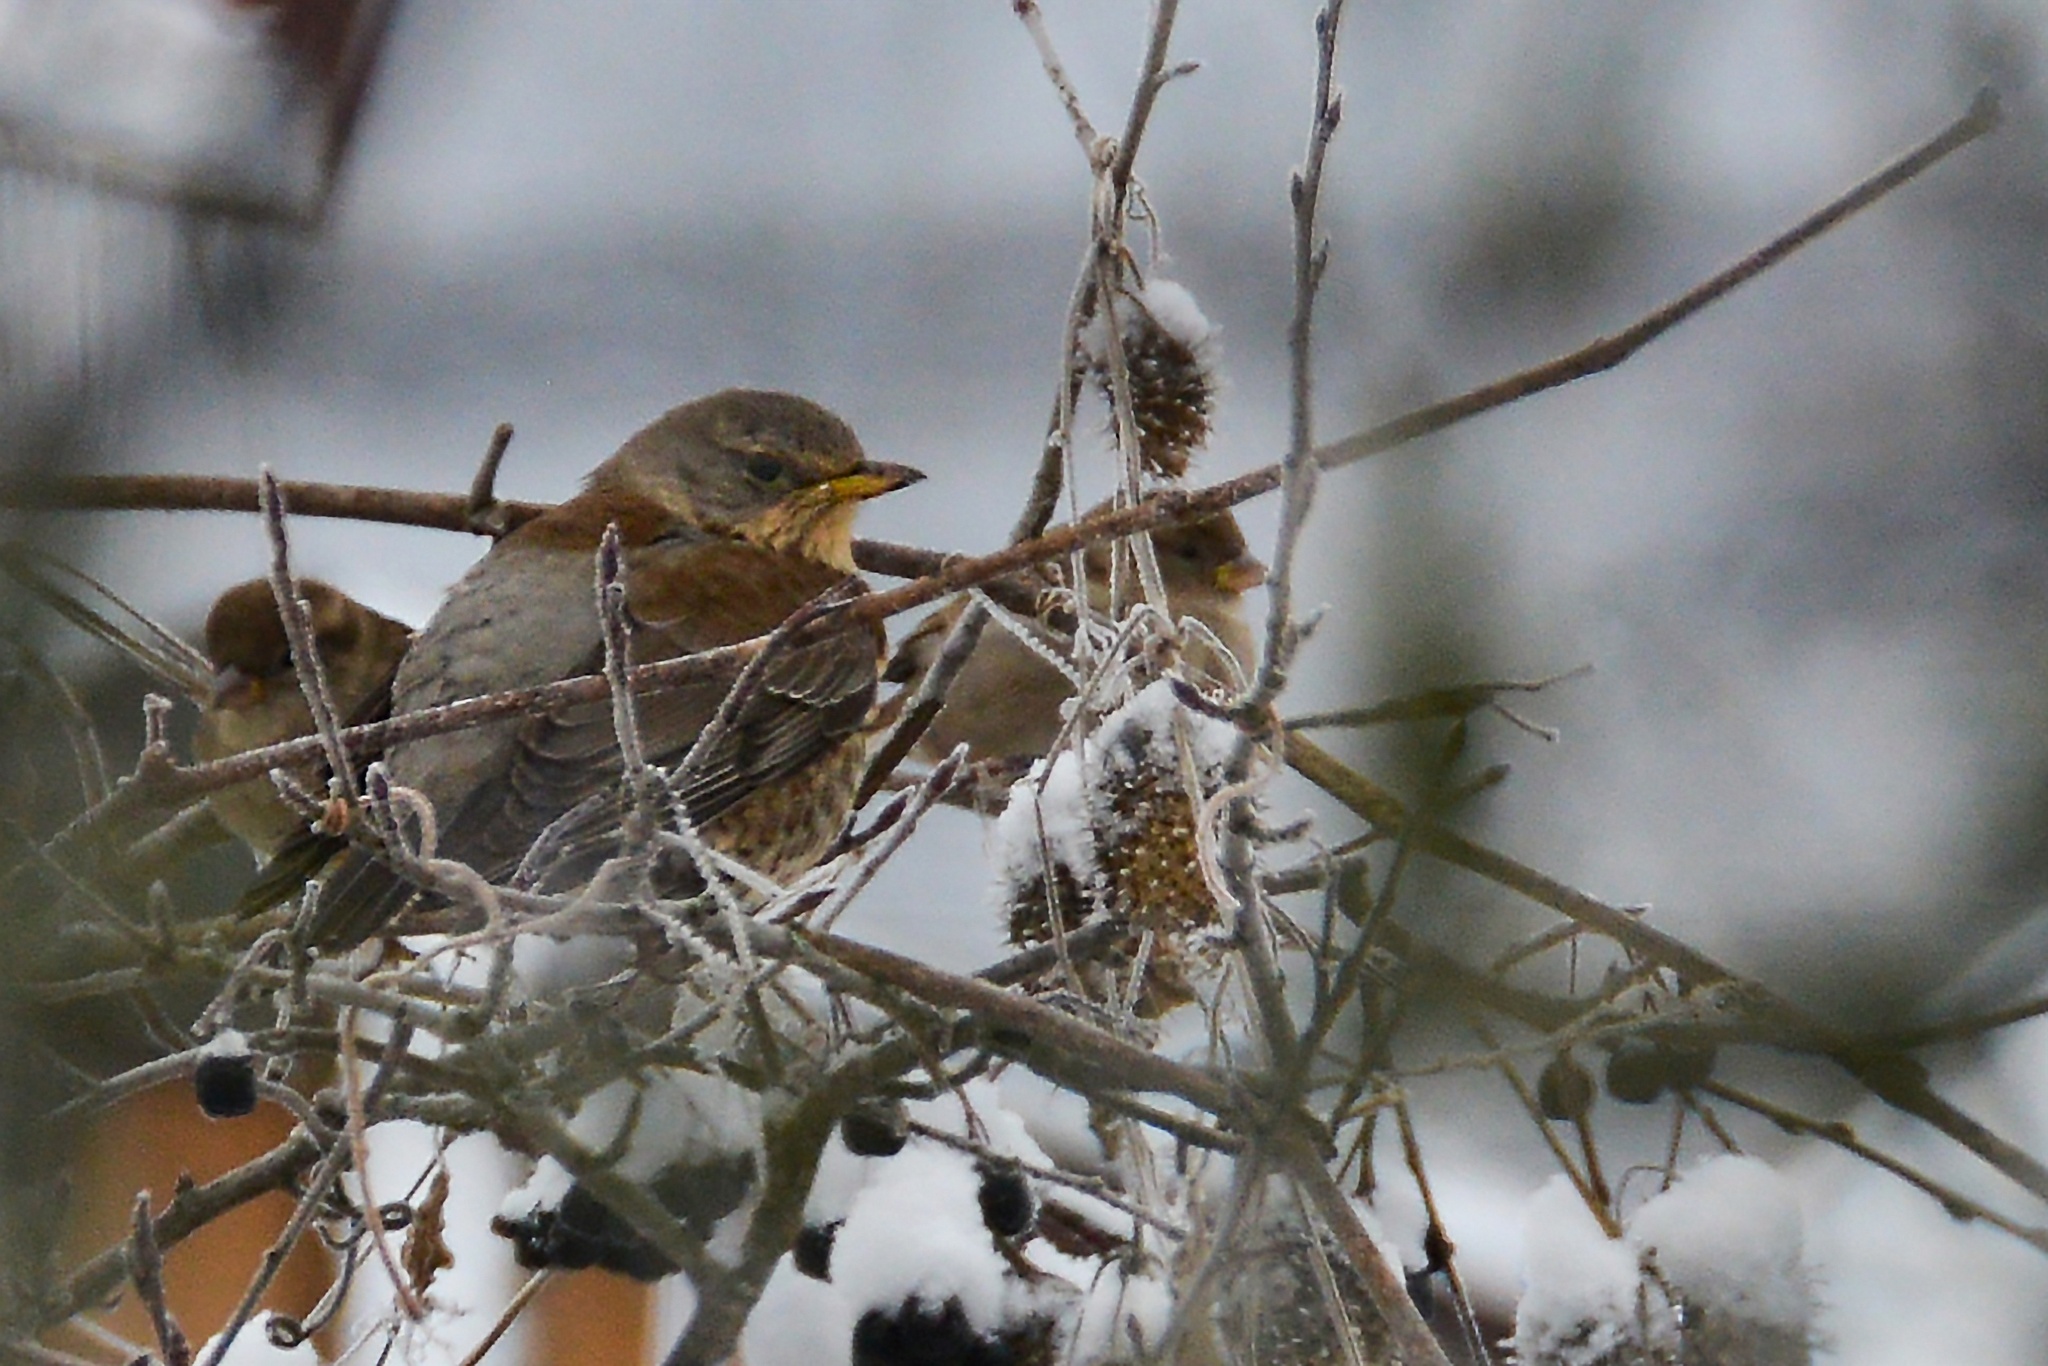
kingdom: Animalia
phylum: Chordata
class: Aves
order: Passeriformes
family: Turdidae
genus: Turdus
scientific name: Turdus pilaris
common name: Fieldfare
